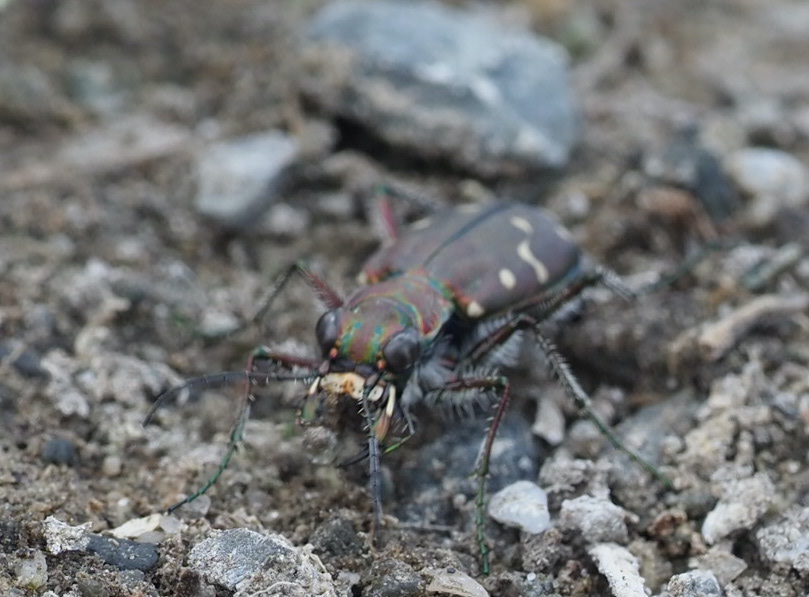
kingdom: Animalia
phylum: Arthropoda
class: Insecta
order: Coleoptera
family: Carabidae
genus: Cicindela
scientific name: Cicindela oregona
